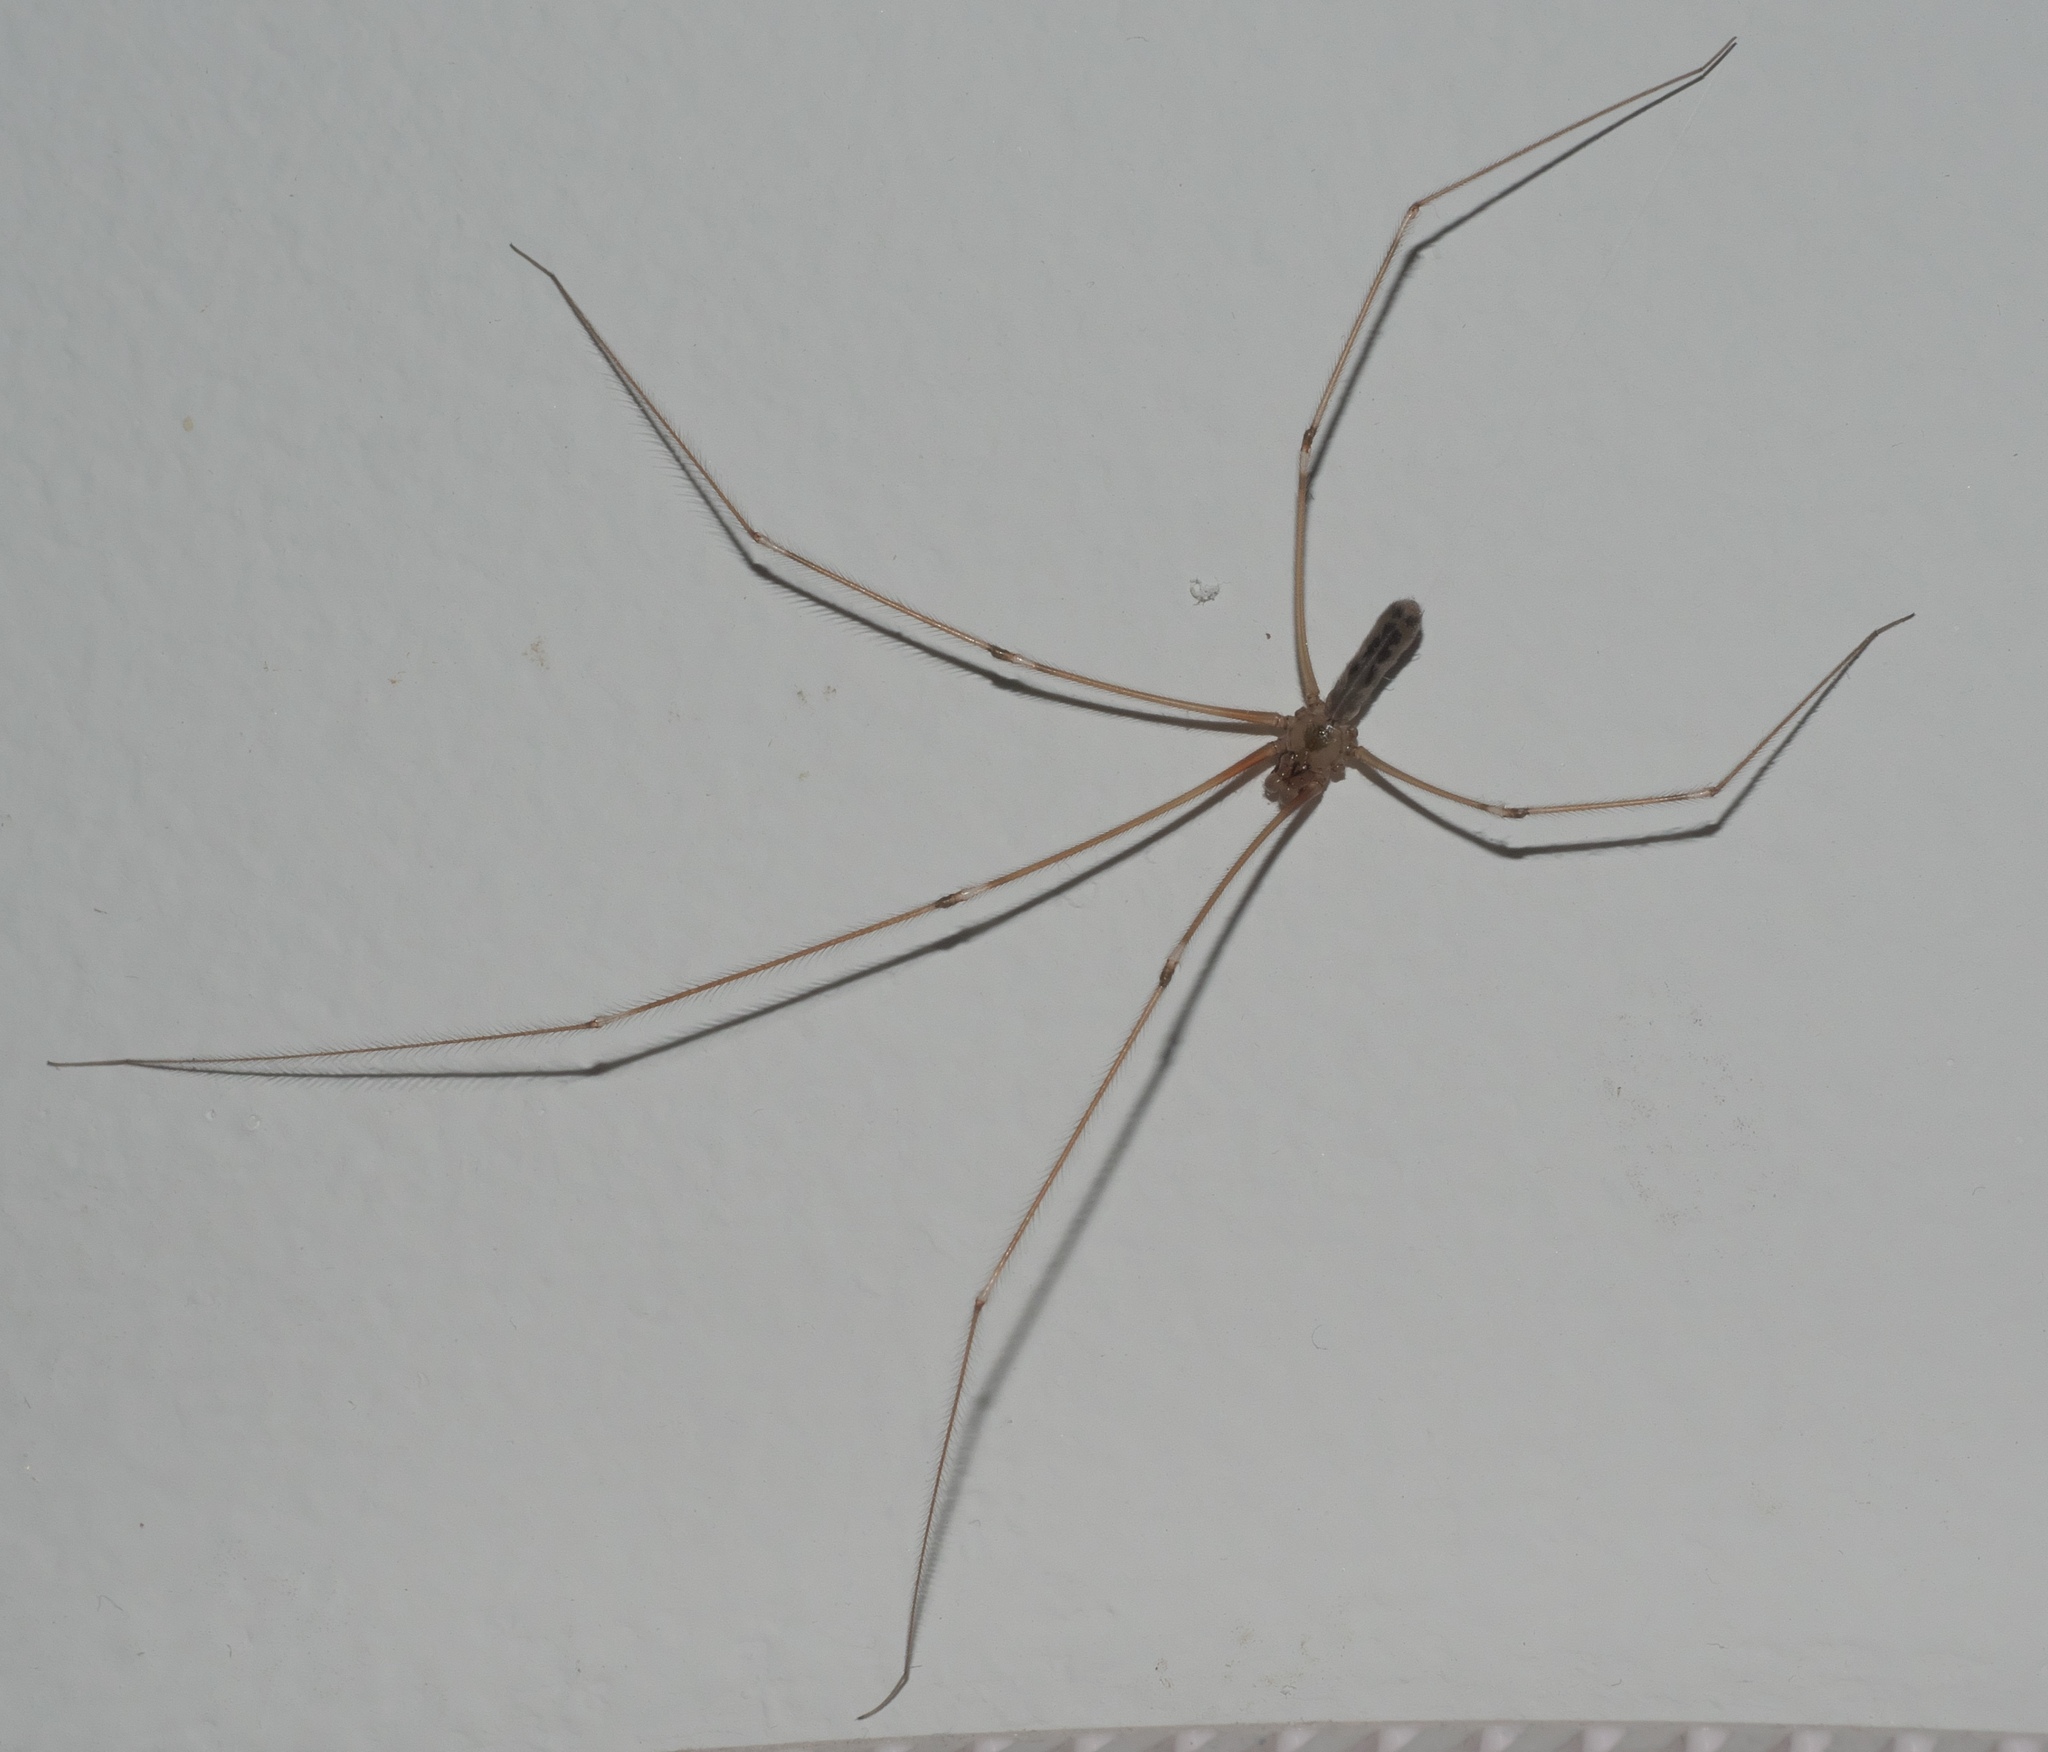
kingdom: Animalia
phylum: Arthropoda
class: Arachnida
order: Araneae
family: Pholcidae
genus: Pholcus
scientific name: Pholcus phalangioides
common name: Longbodied cellar spider
